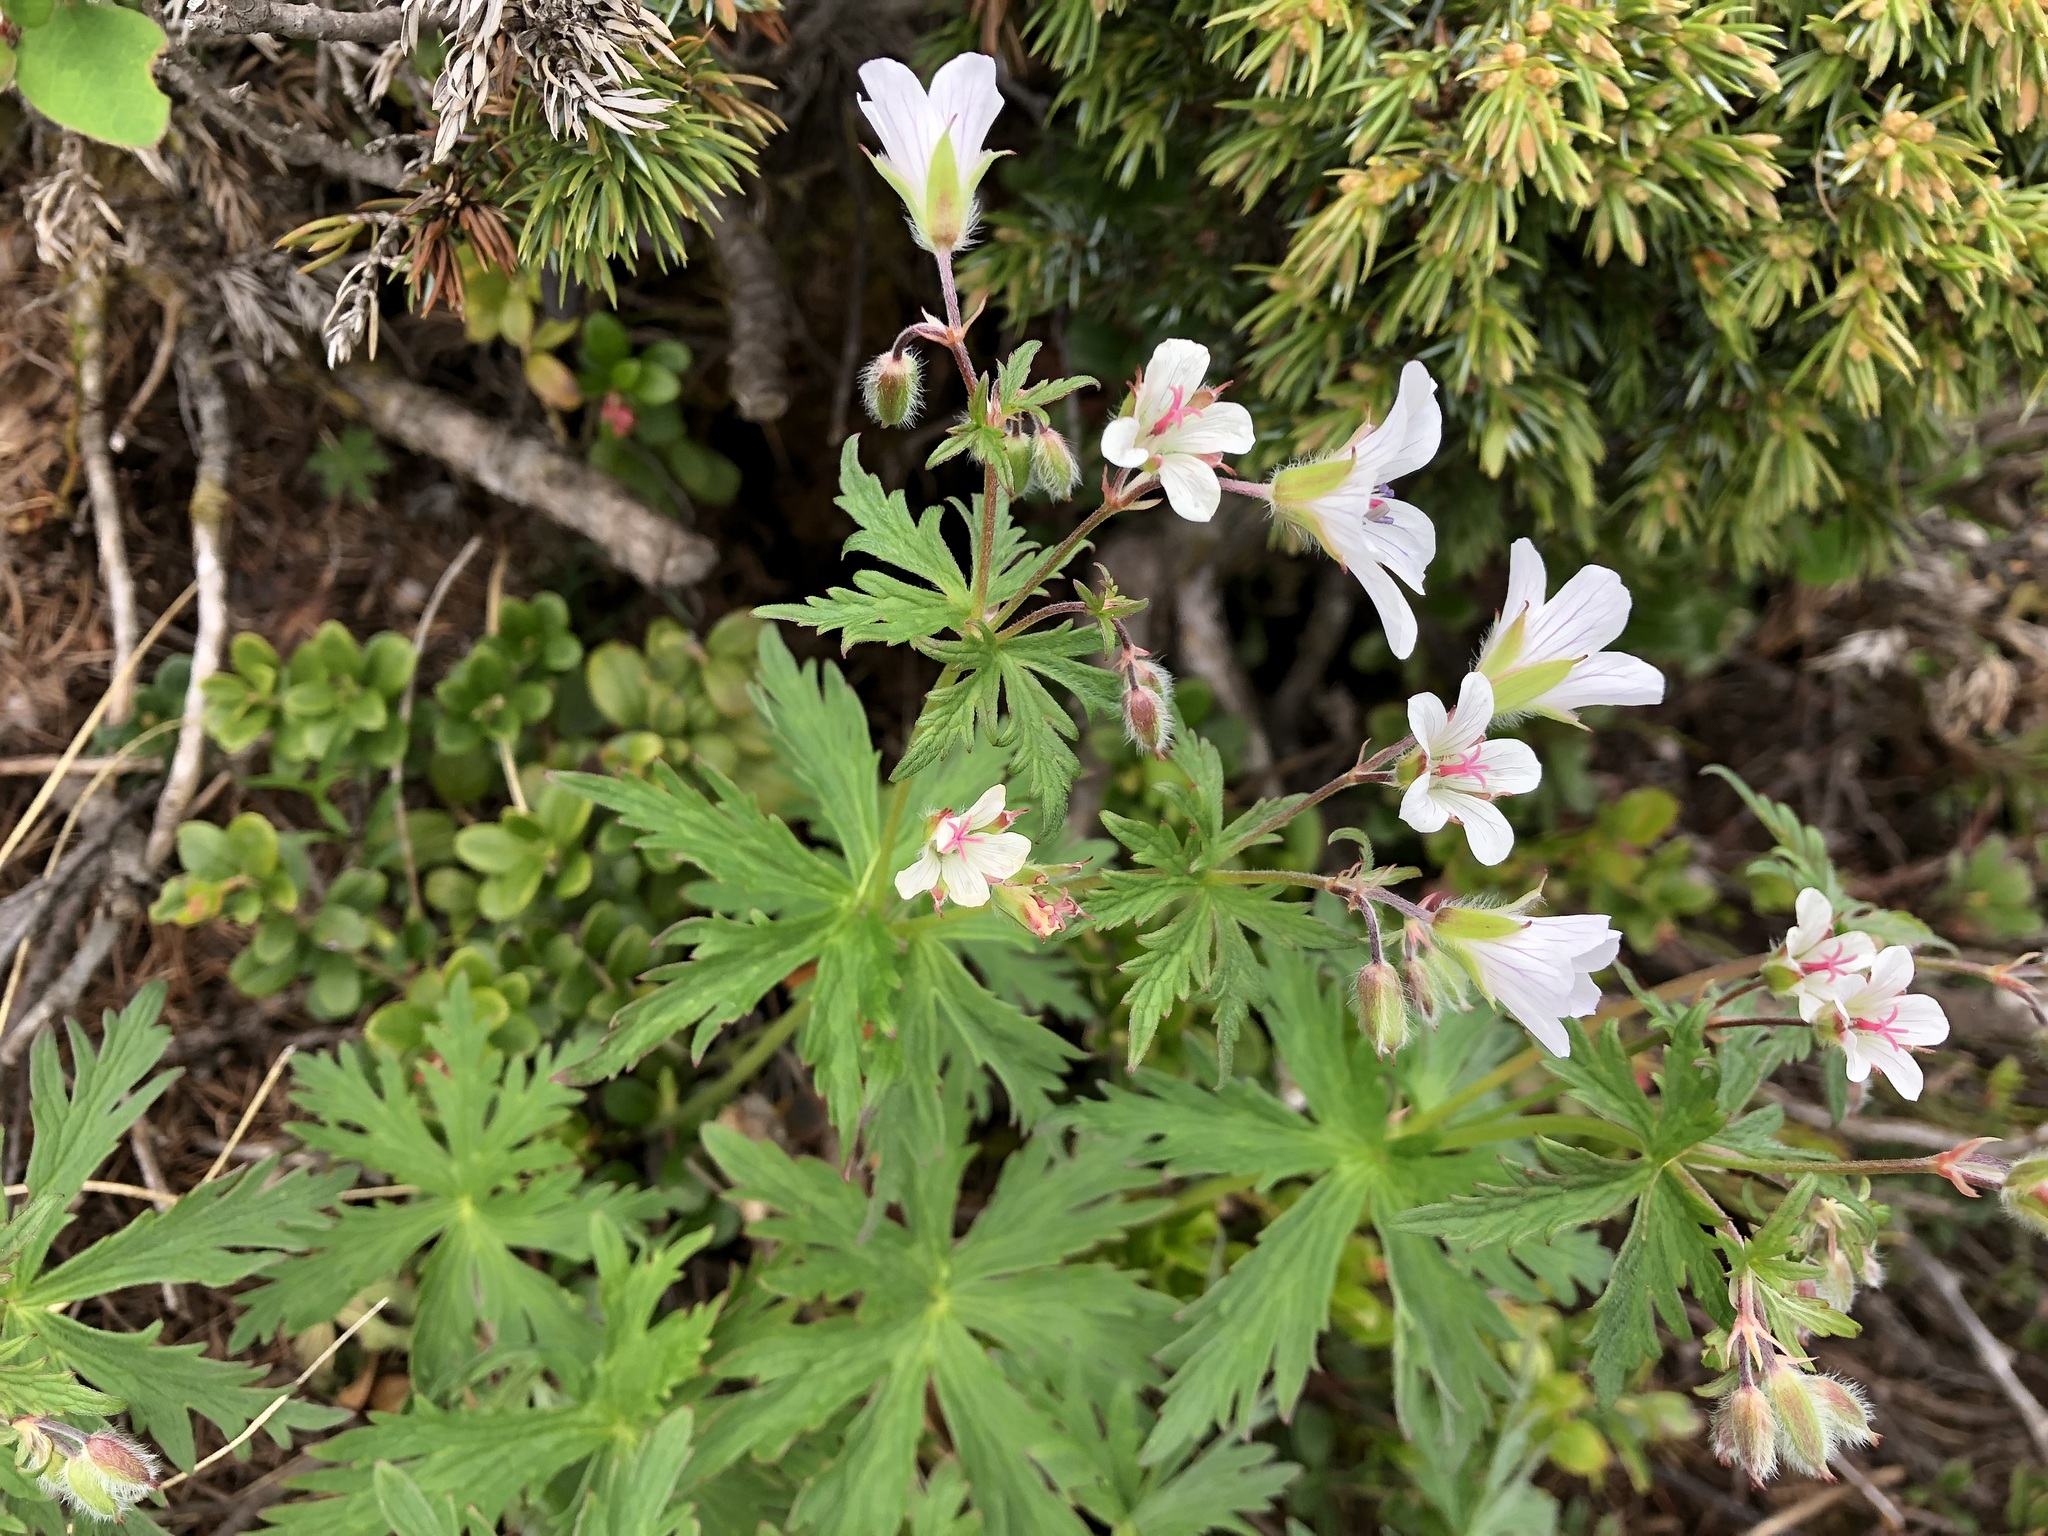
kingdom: Plantae
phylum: Tracheophyta
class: Magnoliopsida
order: Geraniales
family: Geraniaceae
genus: Geranium
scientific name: Geranium rivulare
